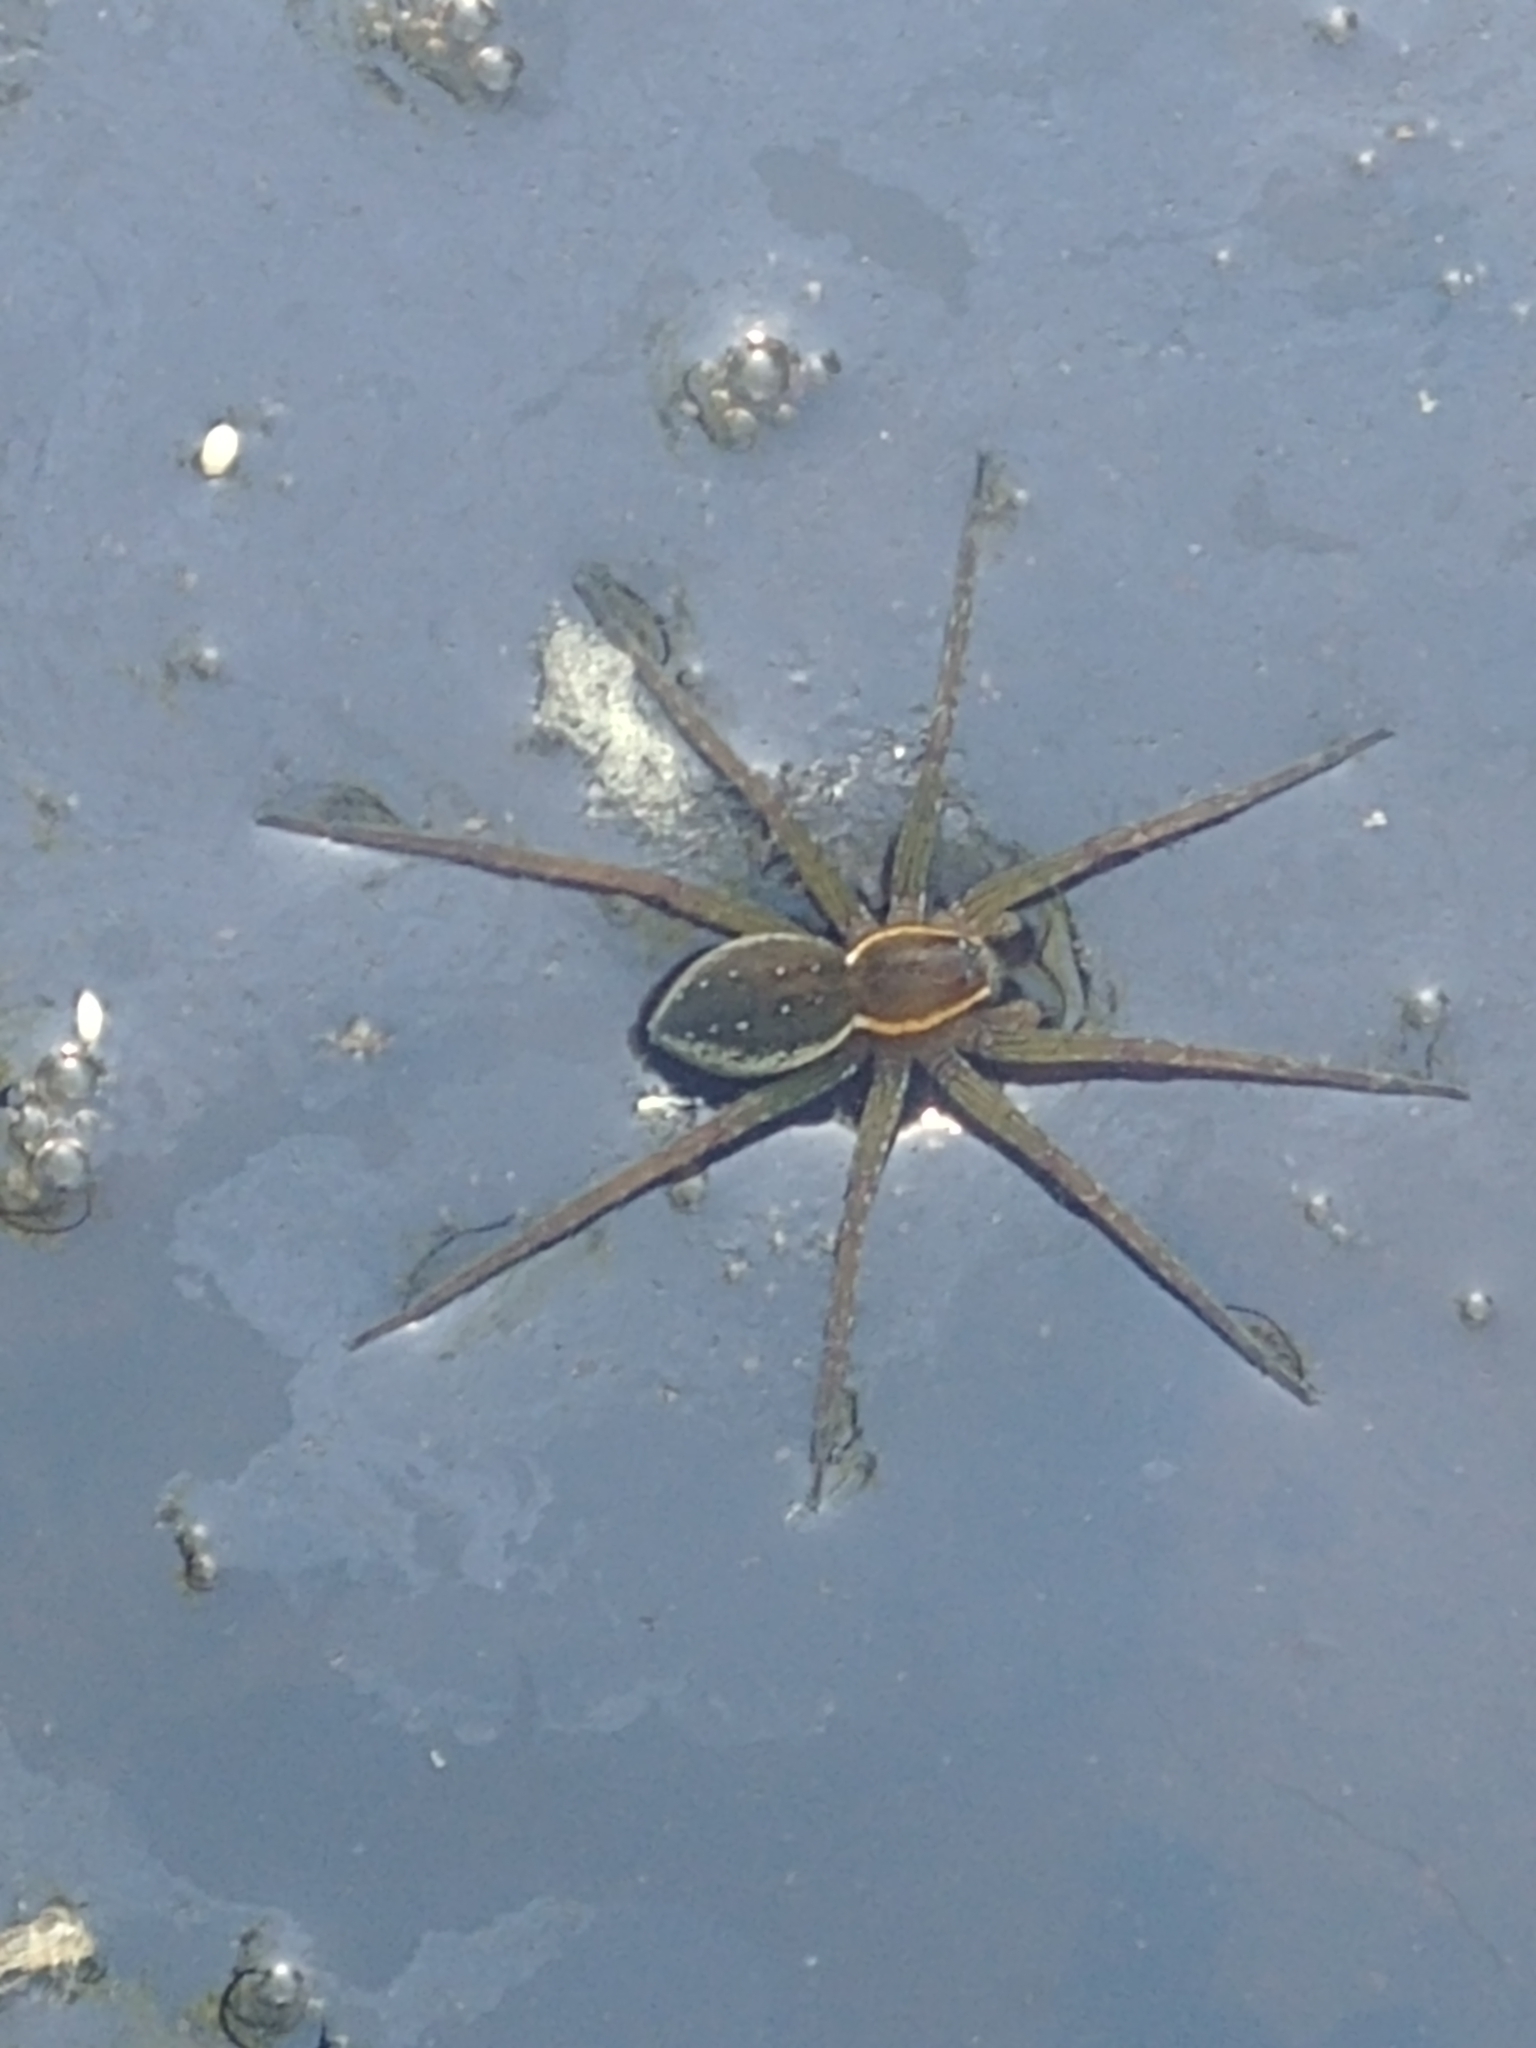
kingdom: Animalia
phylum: Arthropoda
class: Arachnida
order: Araneae
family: Pisauridae
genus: Dolomedes
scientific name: Dolomedes triton
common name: Six-spotted fishing spider
